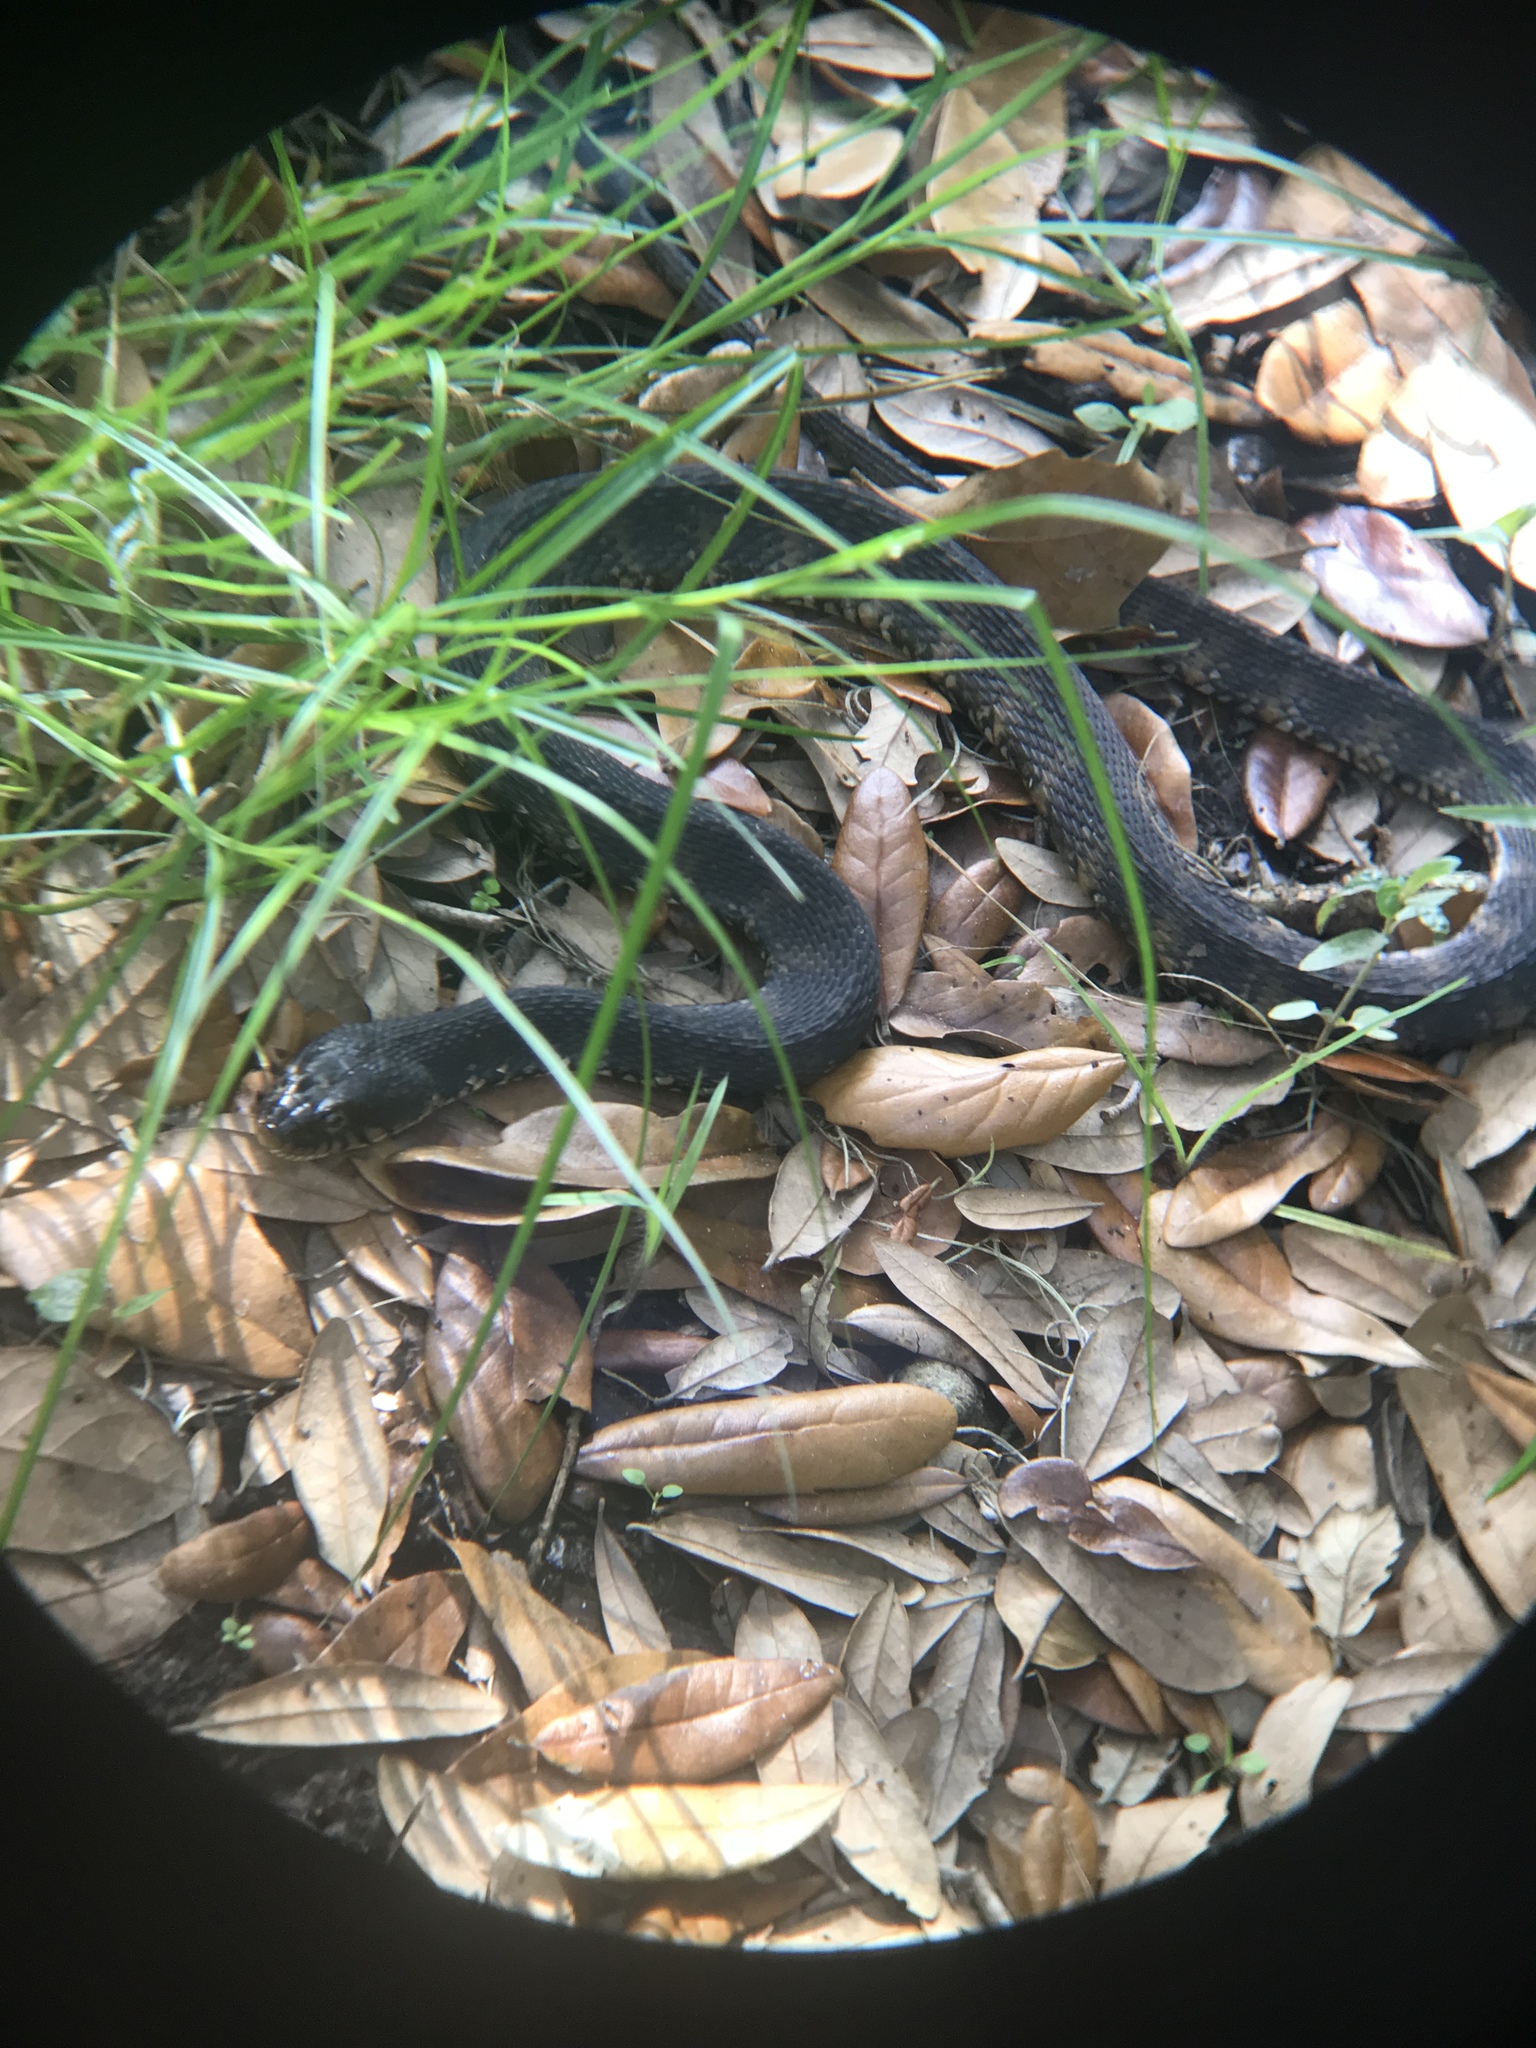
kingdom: Animalia
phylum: Chordata
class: Squamata
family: Colubridae
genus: Nerodia
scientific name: Nerodia fasciata
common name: Southern water snake
